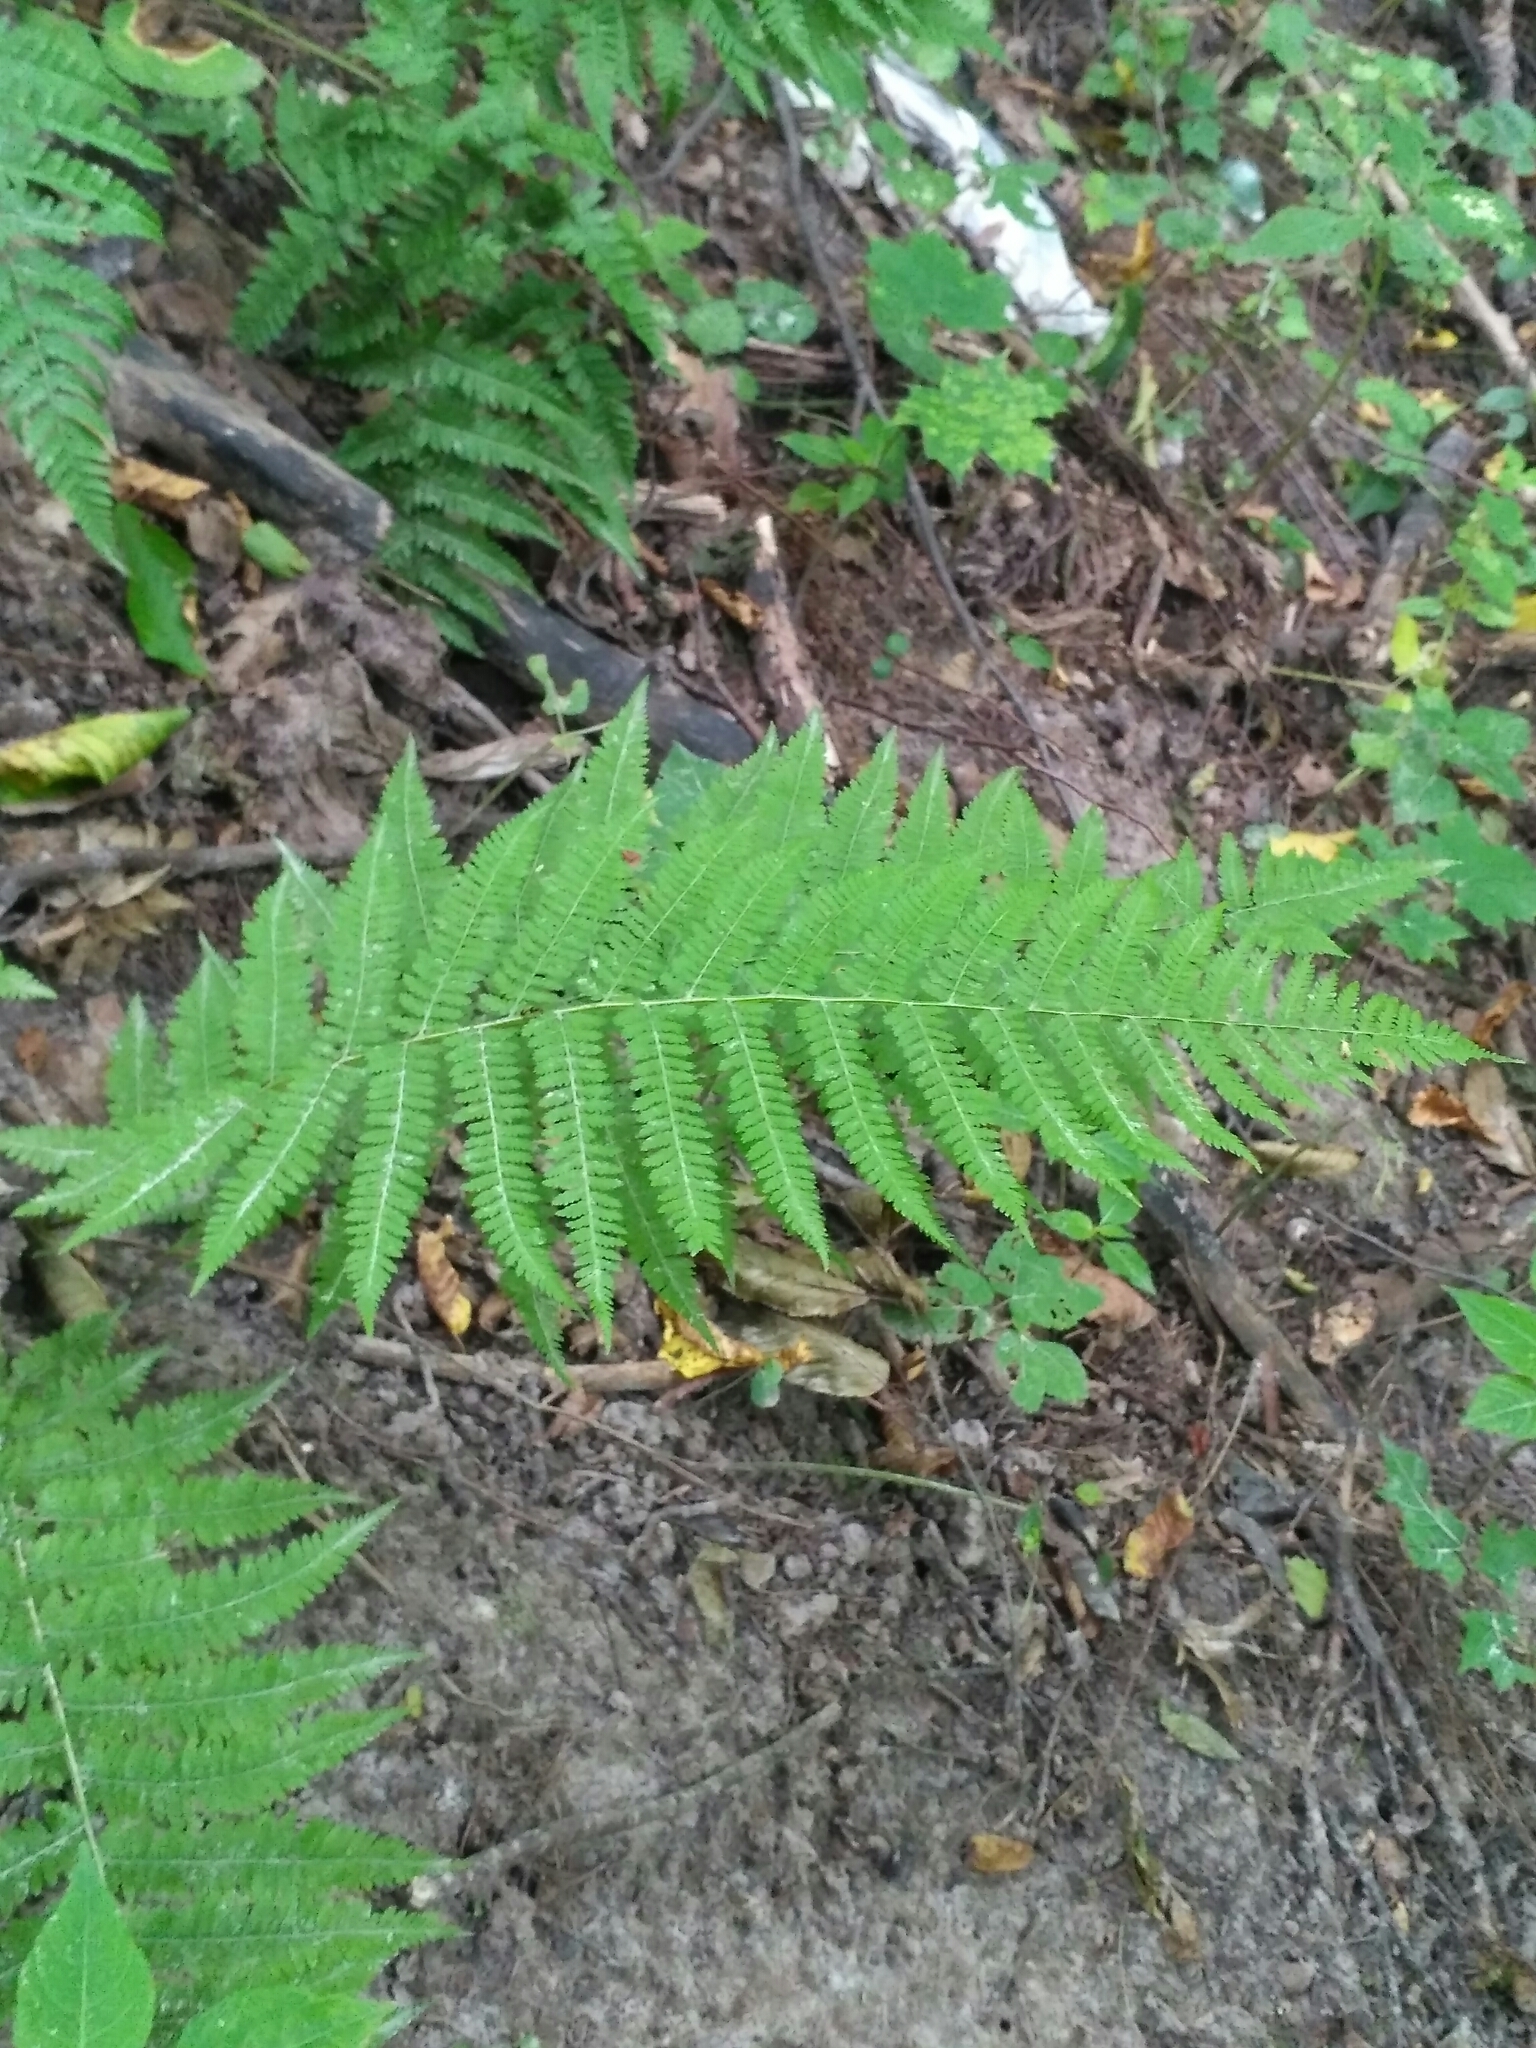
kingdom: Plantae
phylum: Tracheophyta
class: Polypodiopsida
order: Polypodiales
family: Athyriaceae
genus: Athyrium
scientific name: Athyrium filix-femina
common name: Lady fern
